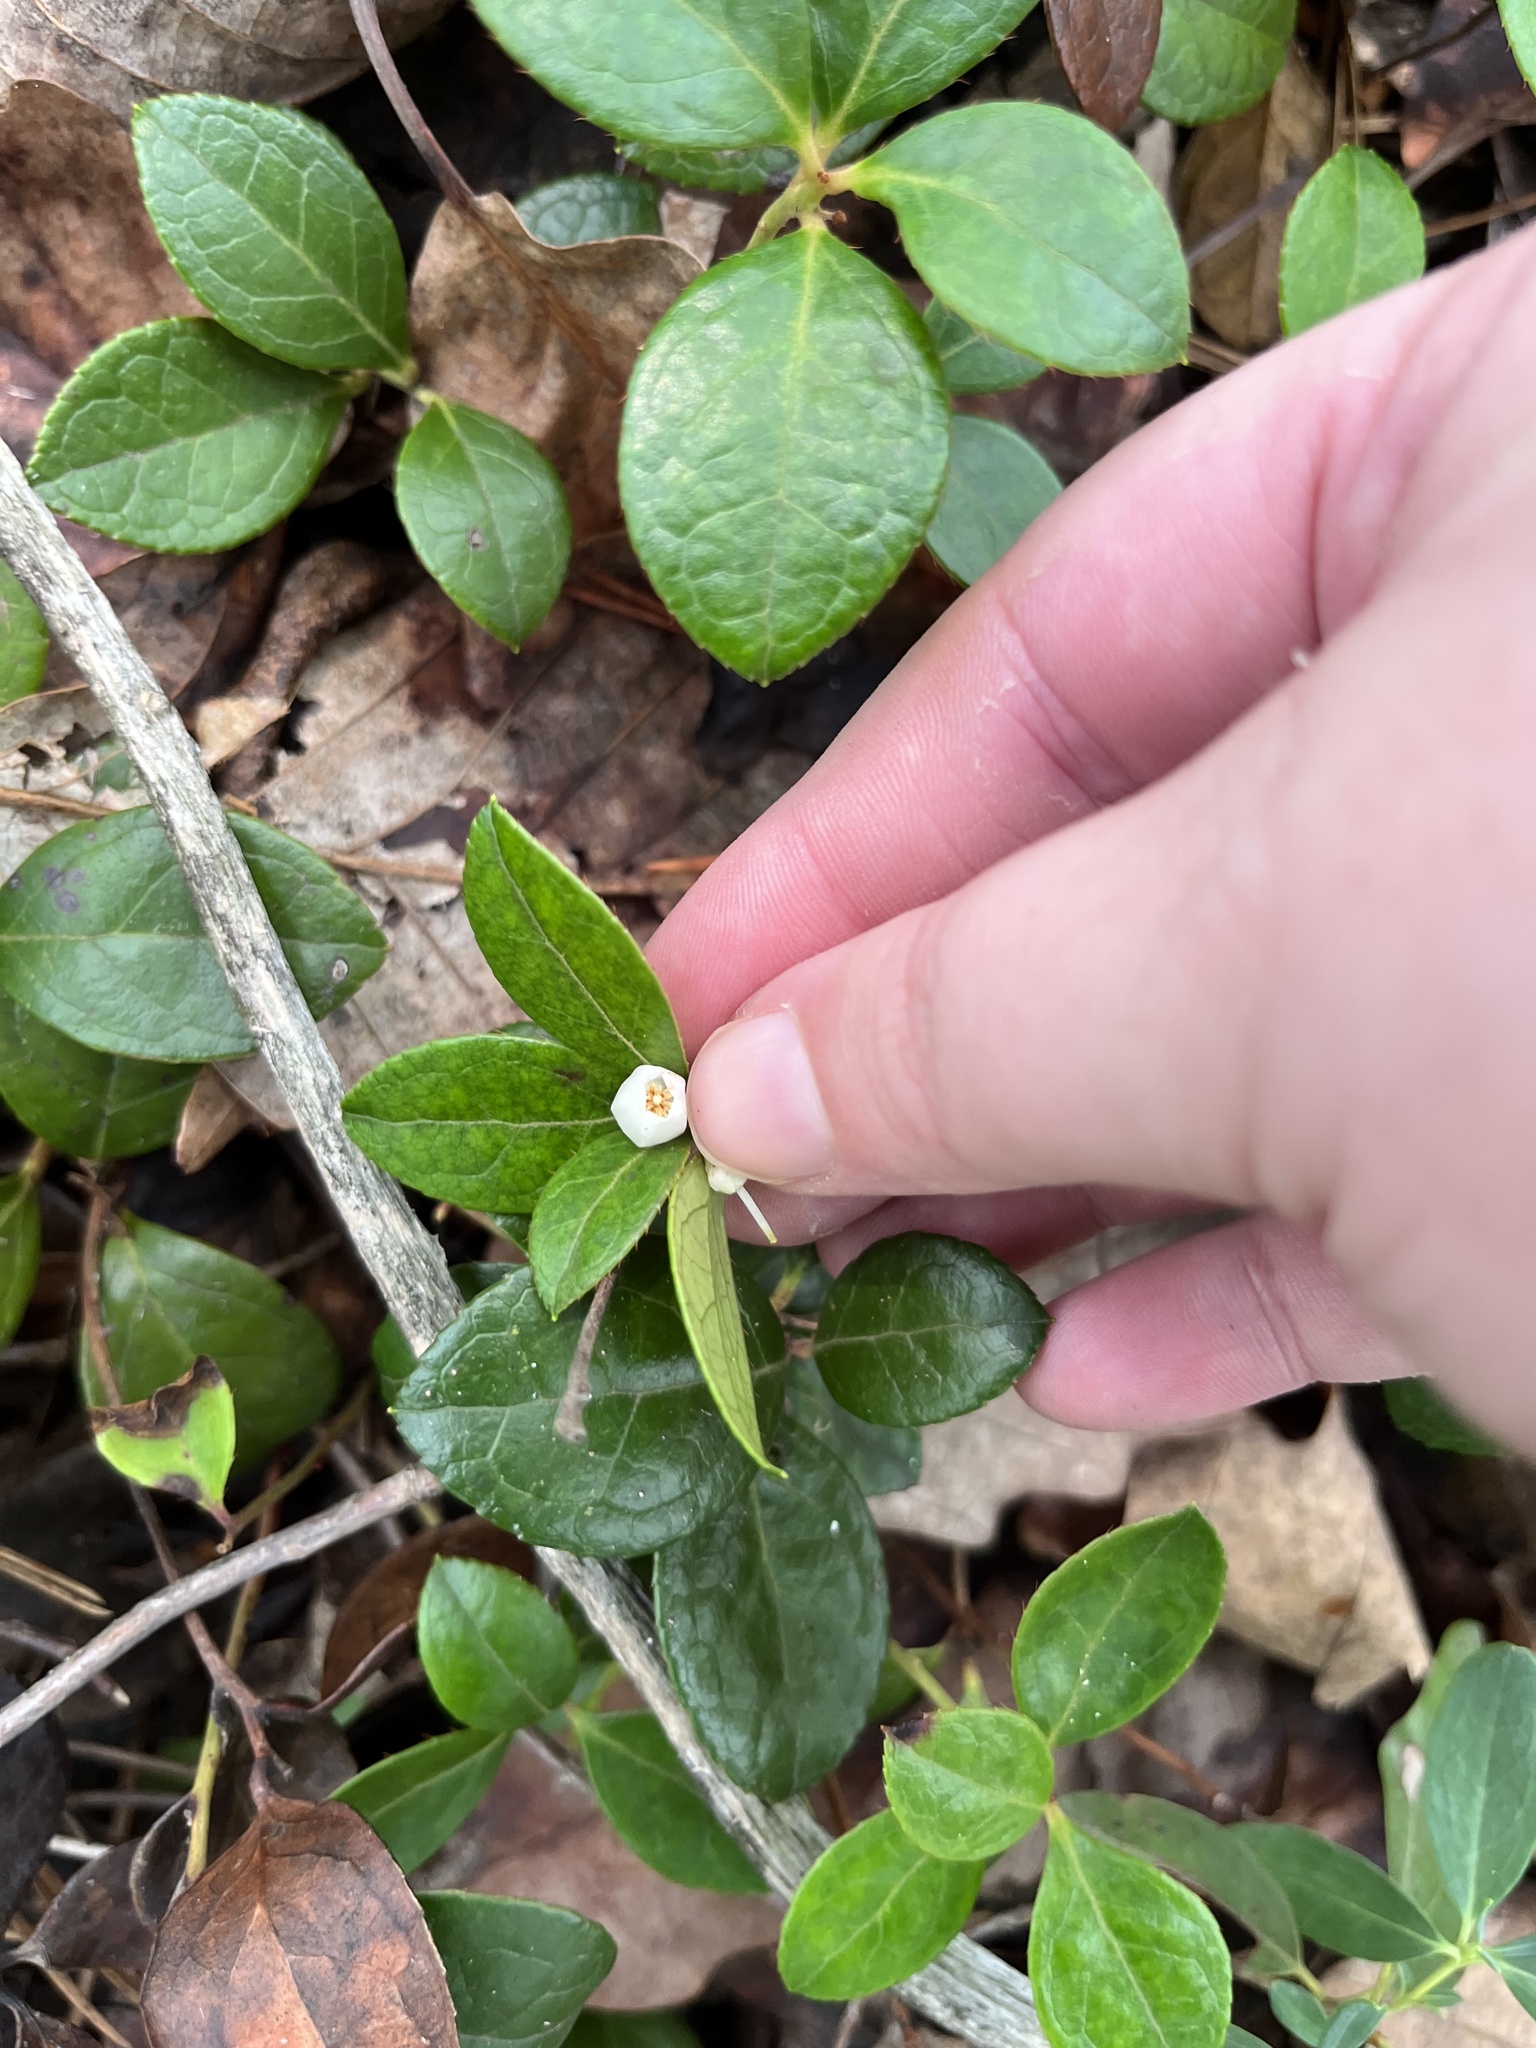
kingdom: Plantae
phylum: Tracheophyta
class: Magnoliopsida
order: Ericales
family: Ericaceae
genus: Gaultheria
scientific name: Gaultheria procumbens
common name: Checkerberry
